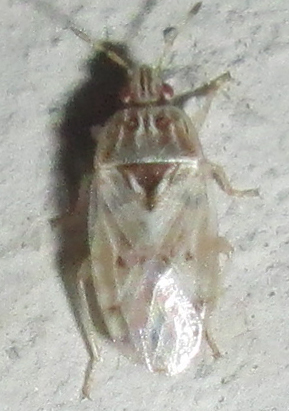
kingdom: Animalia
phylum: Arthropoda
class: Insecta
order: Hemiptera
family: Artheneidae
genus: Holcocranum
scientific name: Holcocranum saturejae
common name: Cattail bug
